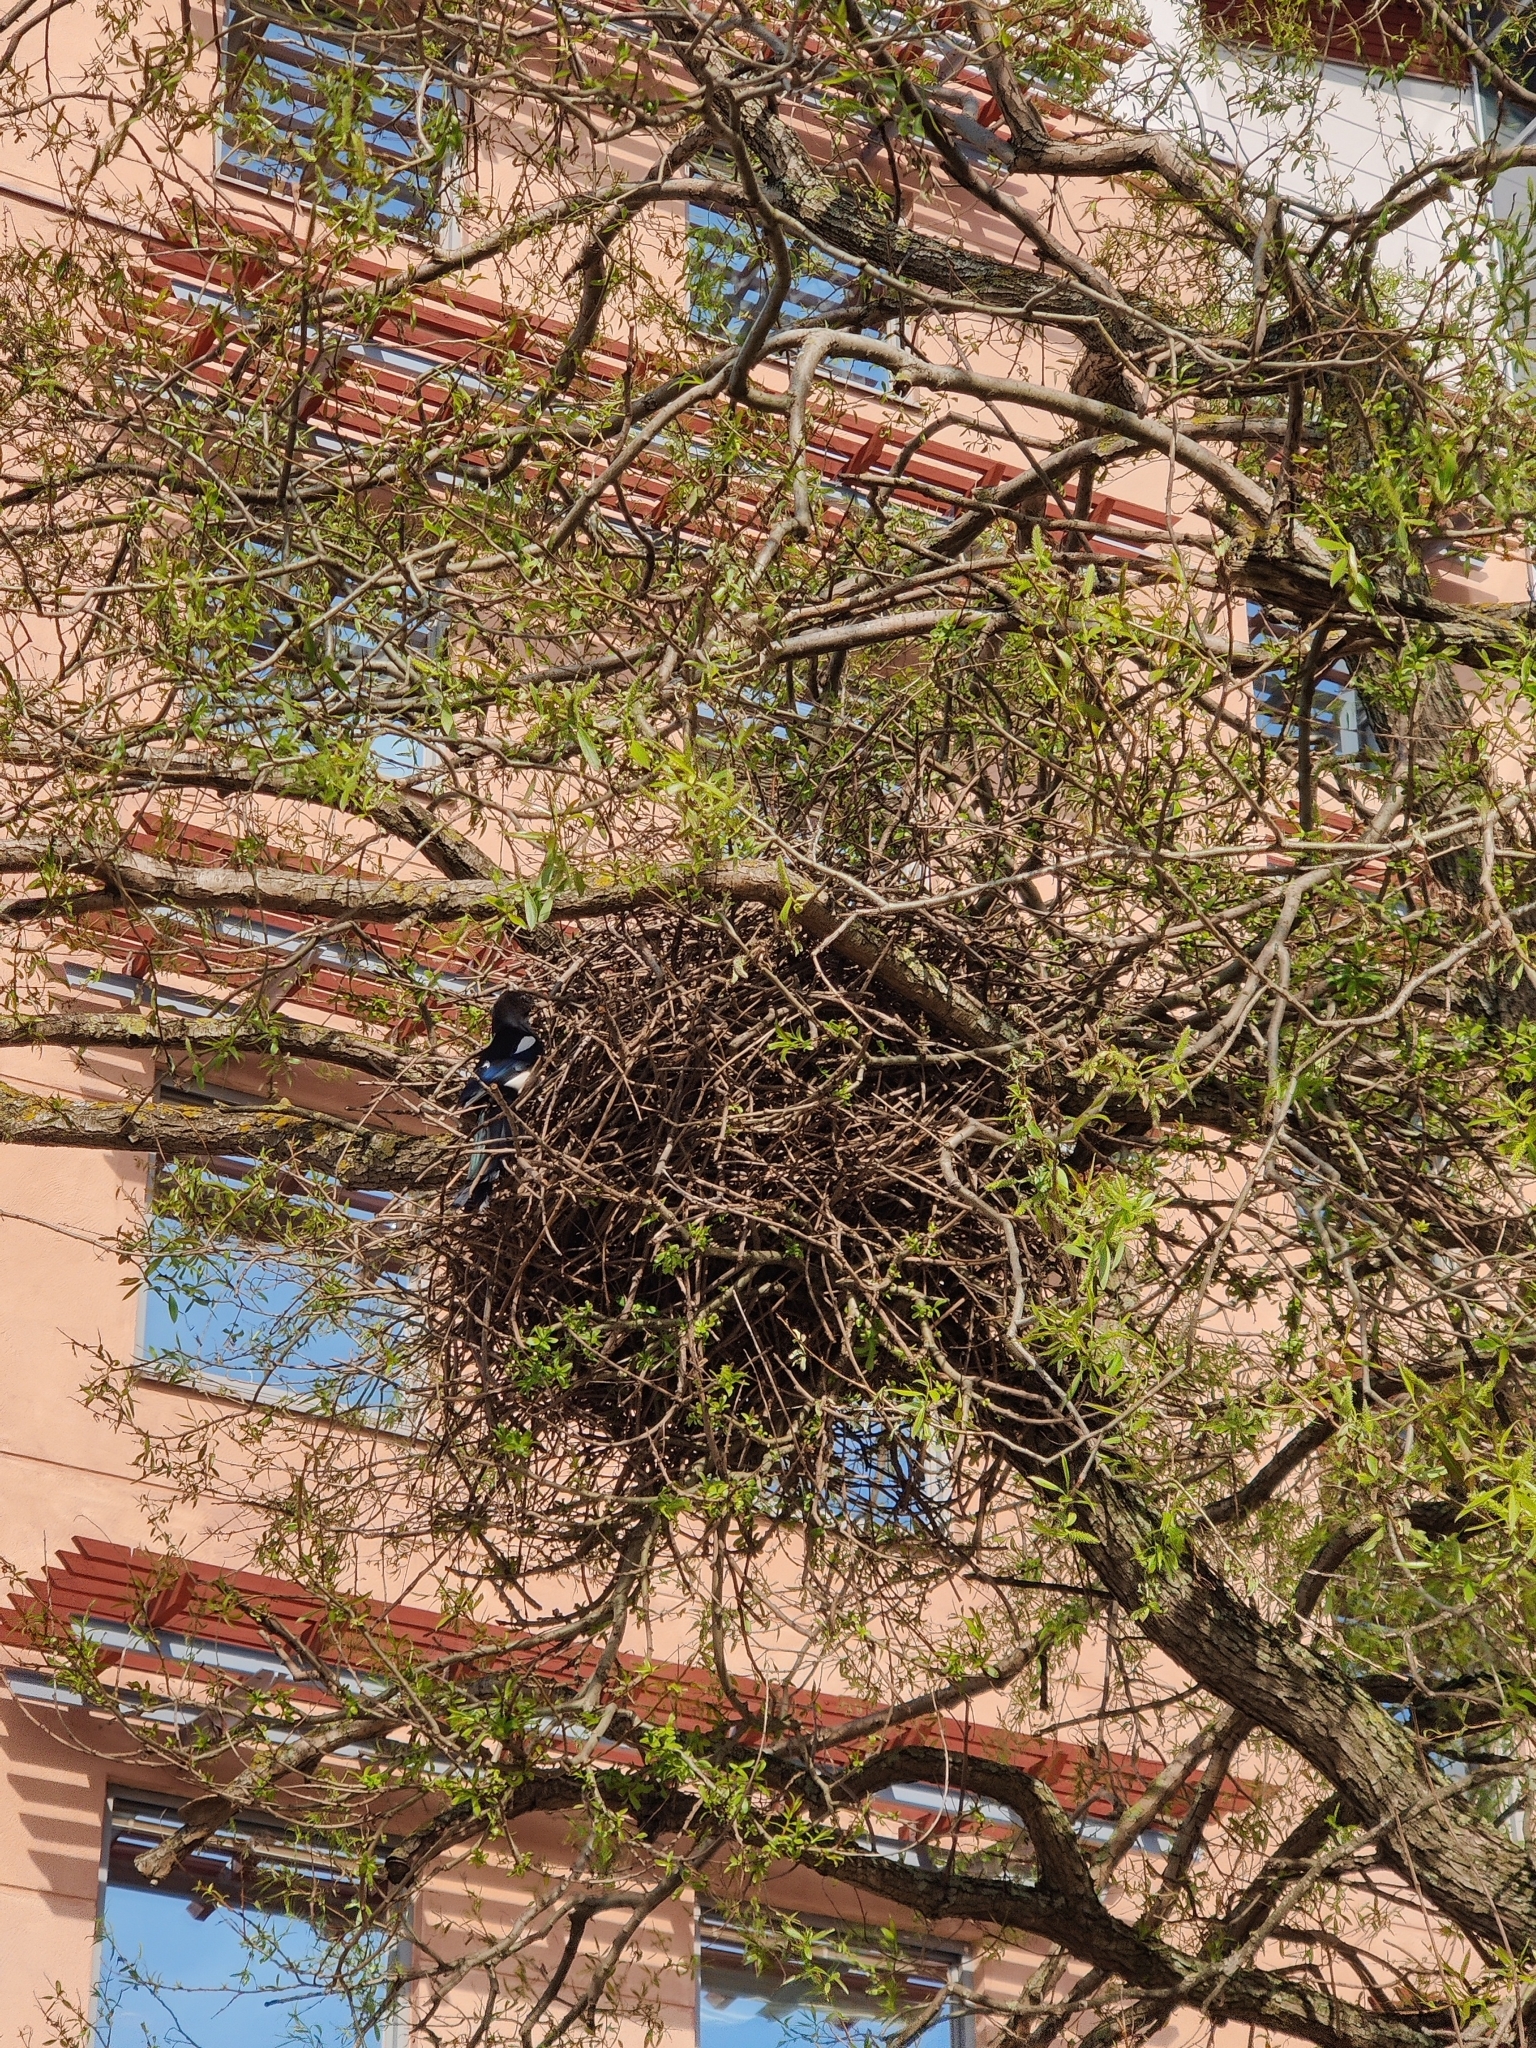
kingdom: Animalia
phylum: Chordata
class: Aves
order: Passeriformes
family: Corvidae
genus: Pica
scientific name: Pica pica
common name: Eurasian magpie
